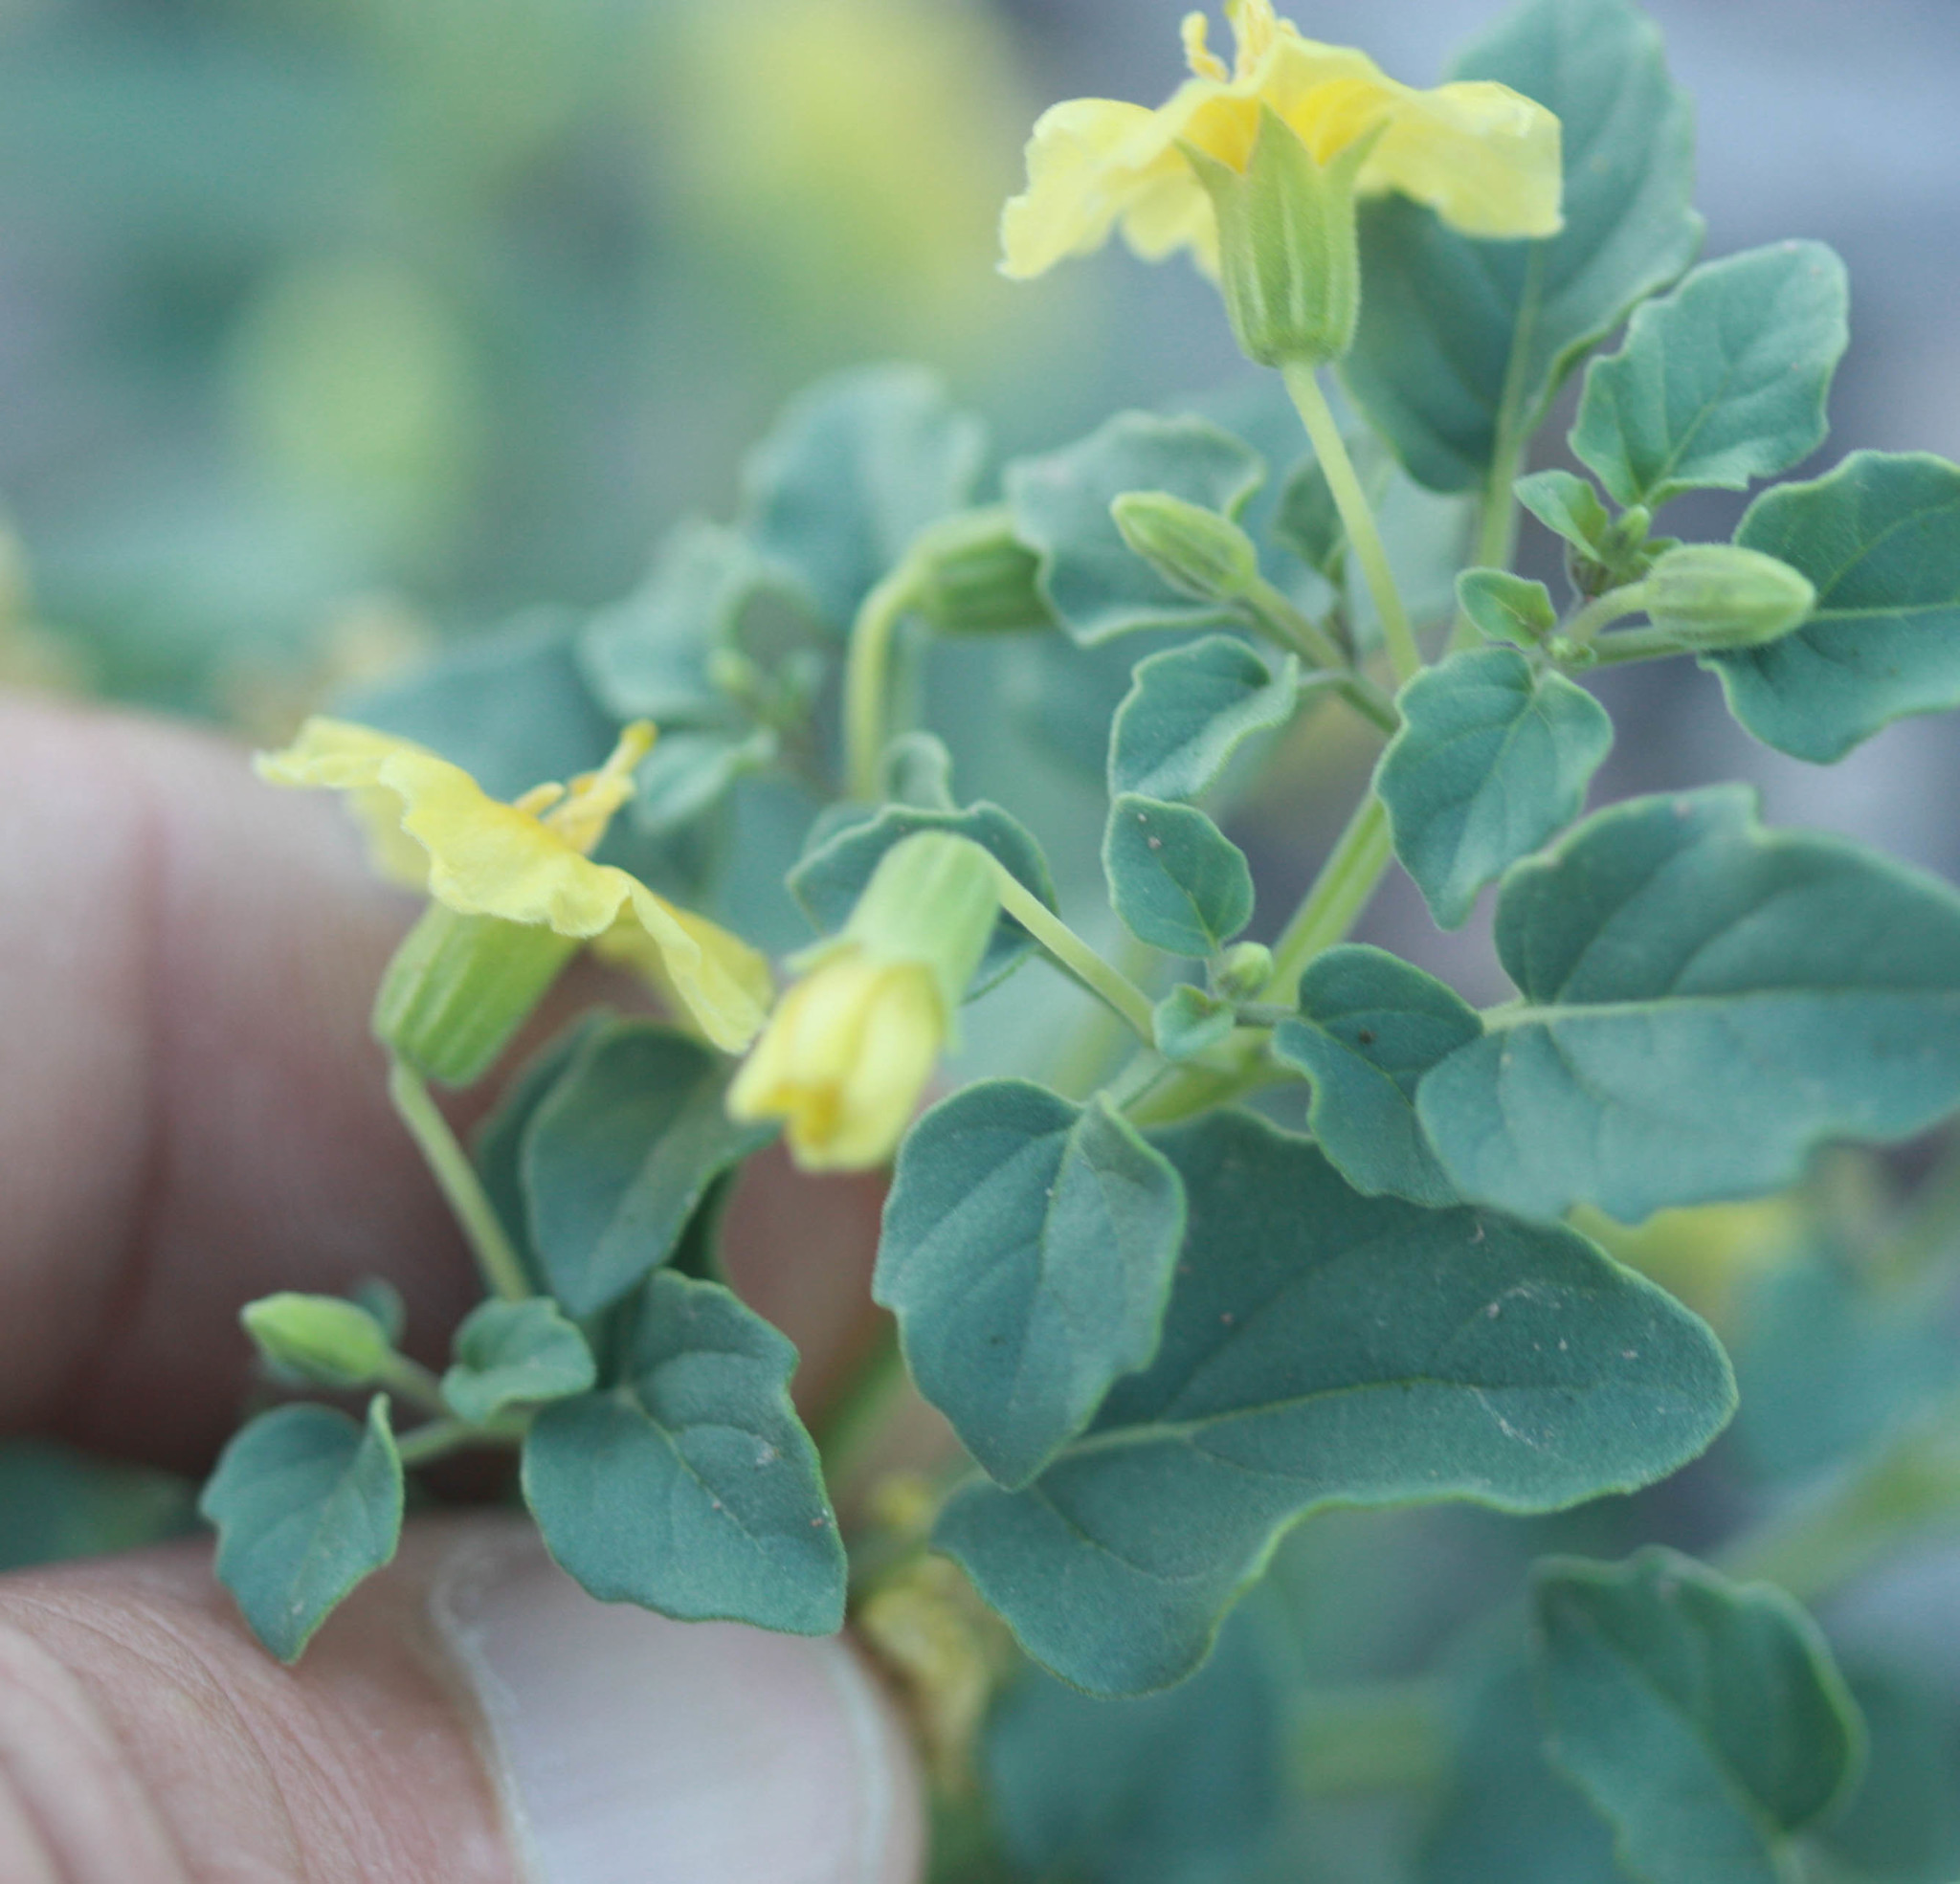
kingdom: Plantae
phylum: Tracheophyta
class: Magnoliopsida
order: Solanales
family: Solanaceae
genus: Physalis
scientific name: Physalis crassifolia
